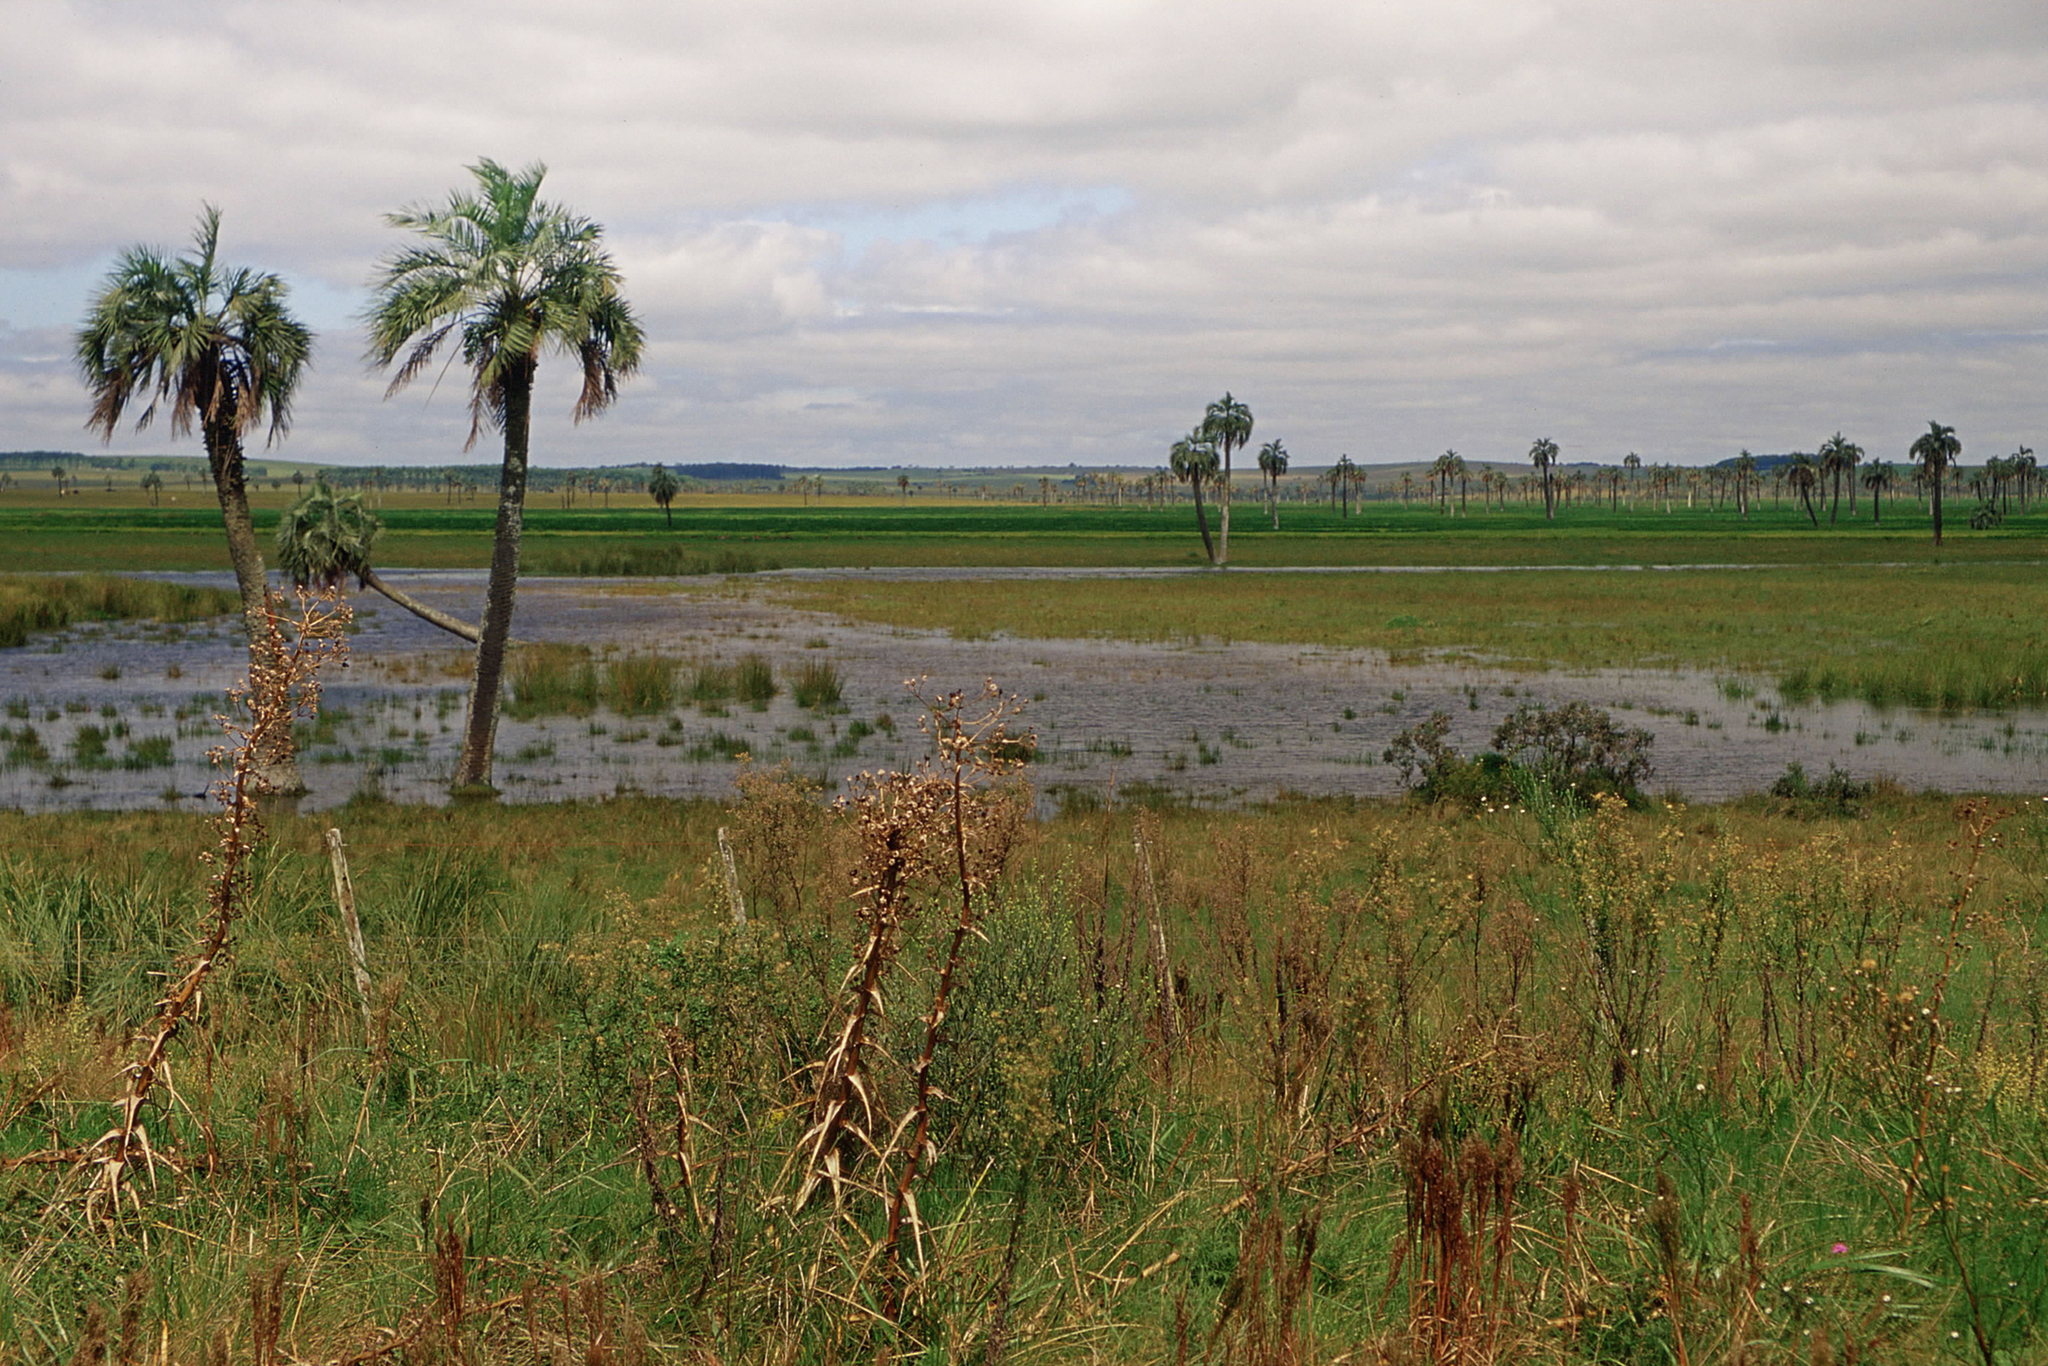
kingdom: Plantae
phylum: Tracheophyta
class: Liliopsida
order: Arecales
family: Arecaceae
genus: Butia
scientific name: Butia odorata
